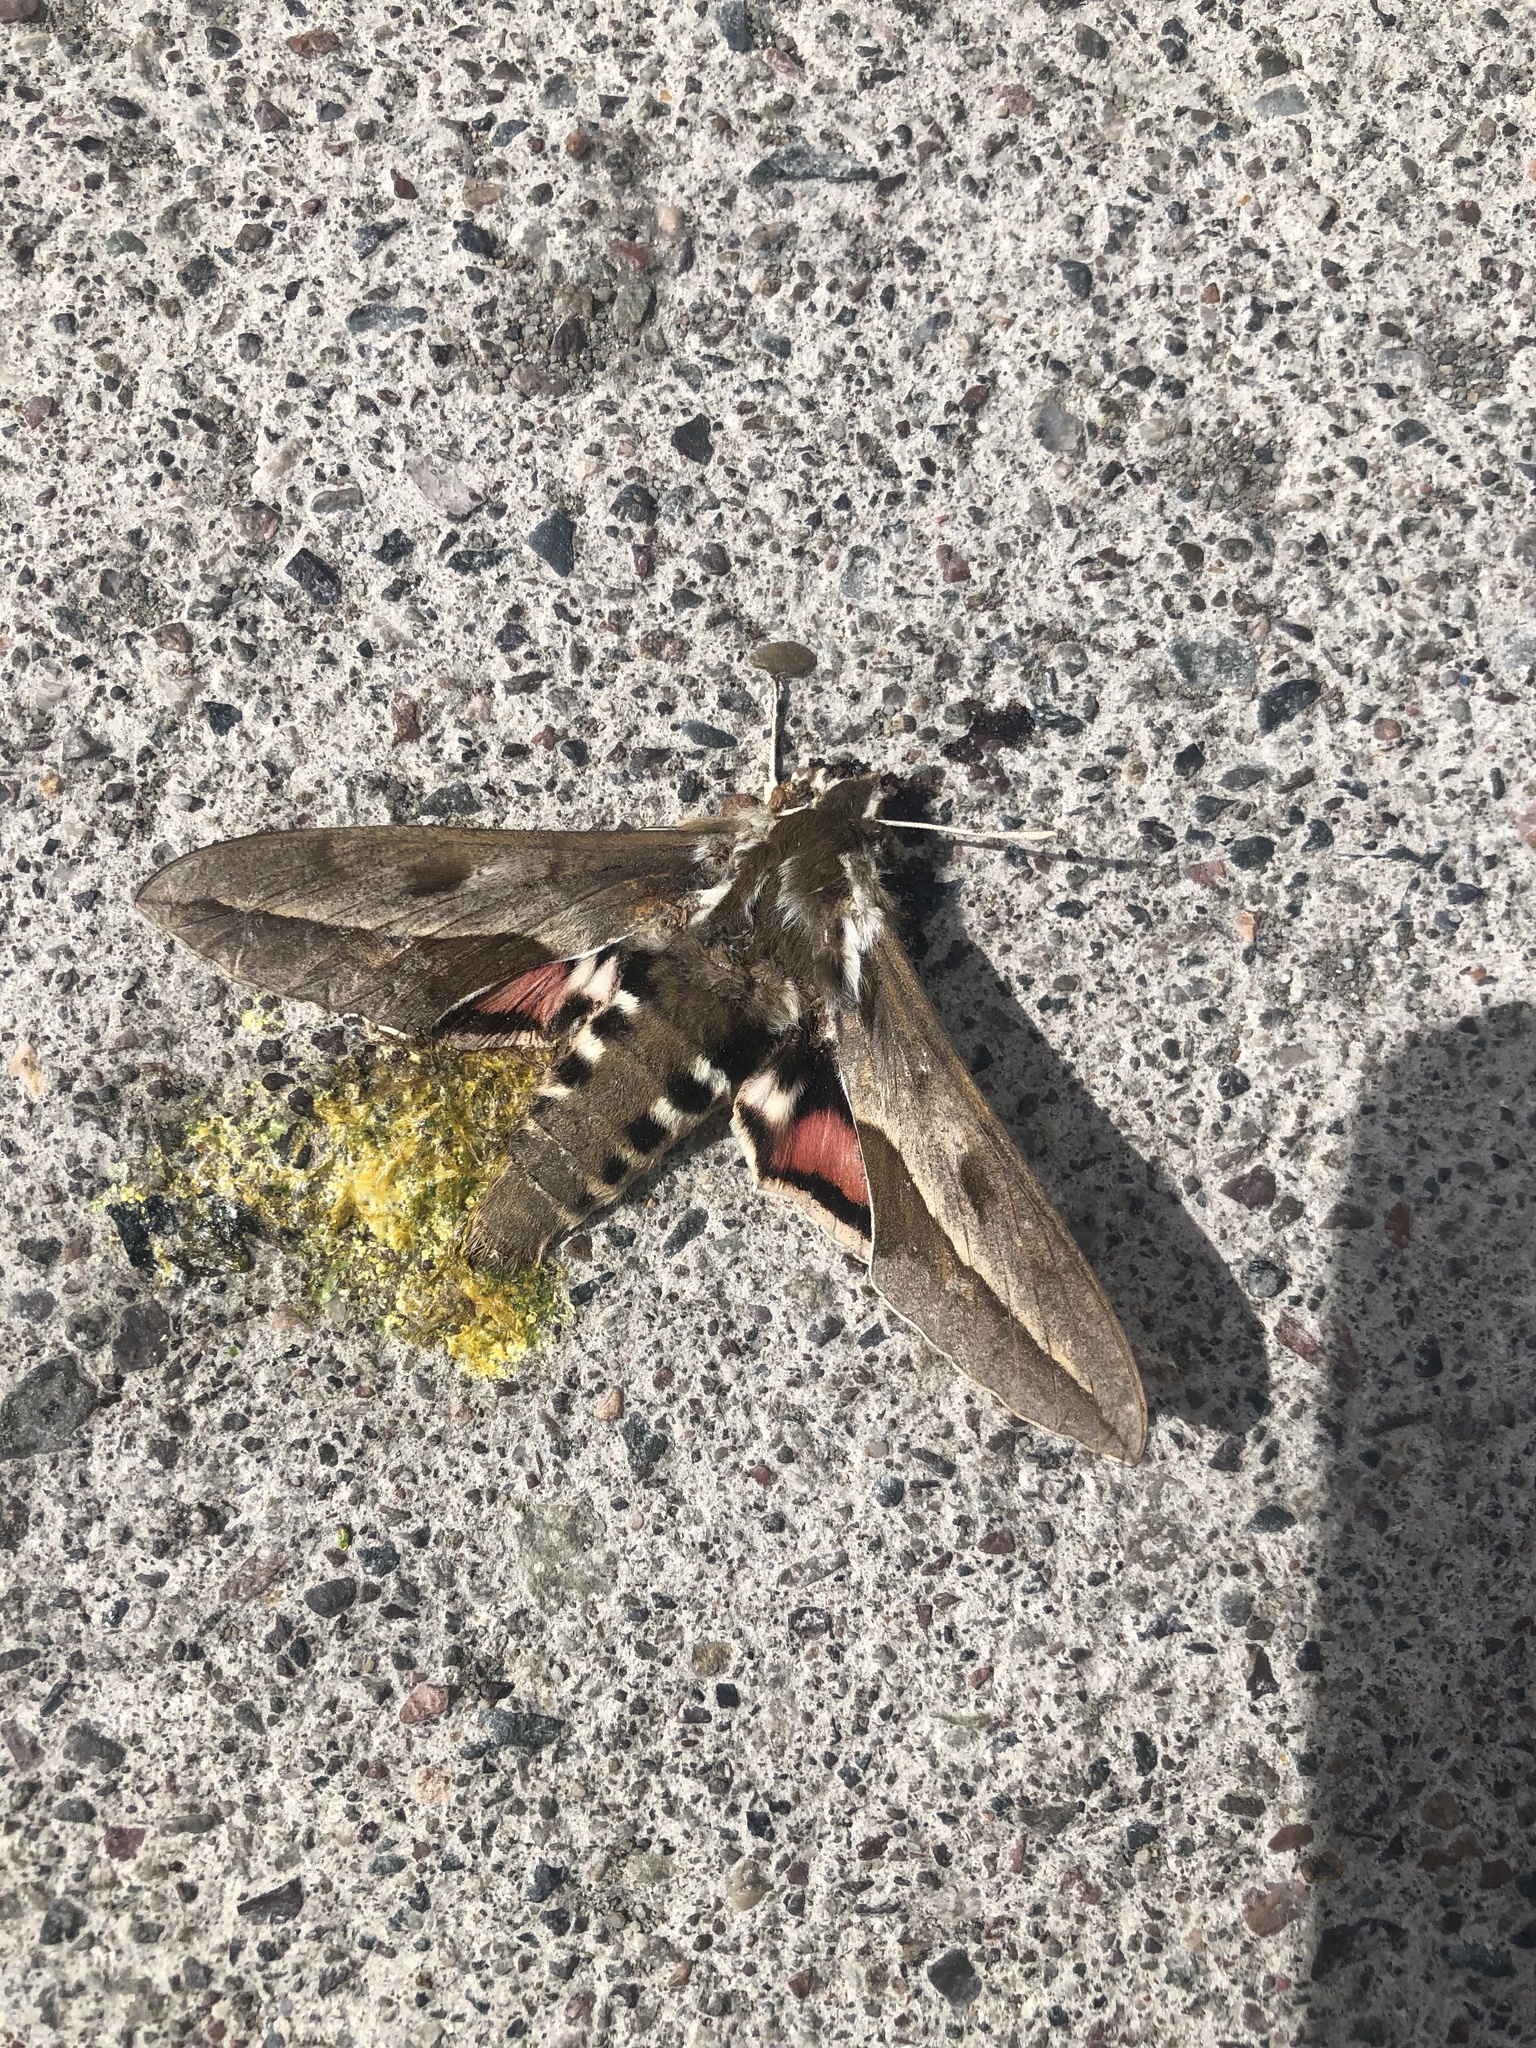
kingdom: Animalia
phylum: Arthropoda
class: Insecta
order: Lepidoptera
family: Sphingidae
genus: Hyles
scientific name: Hyles annei
